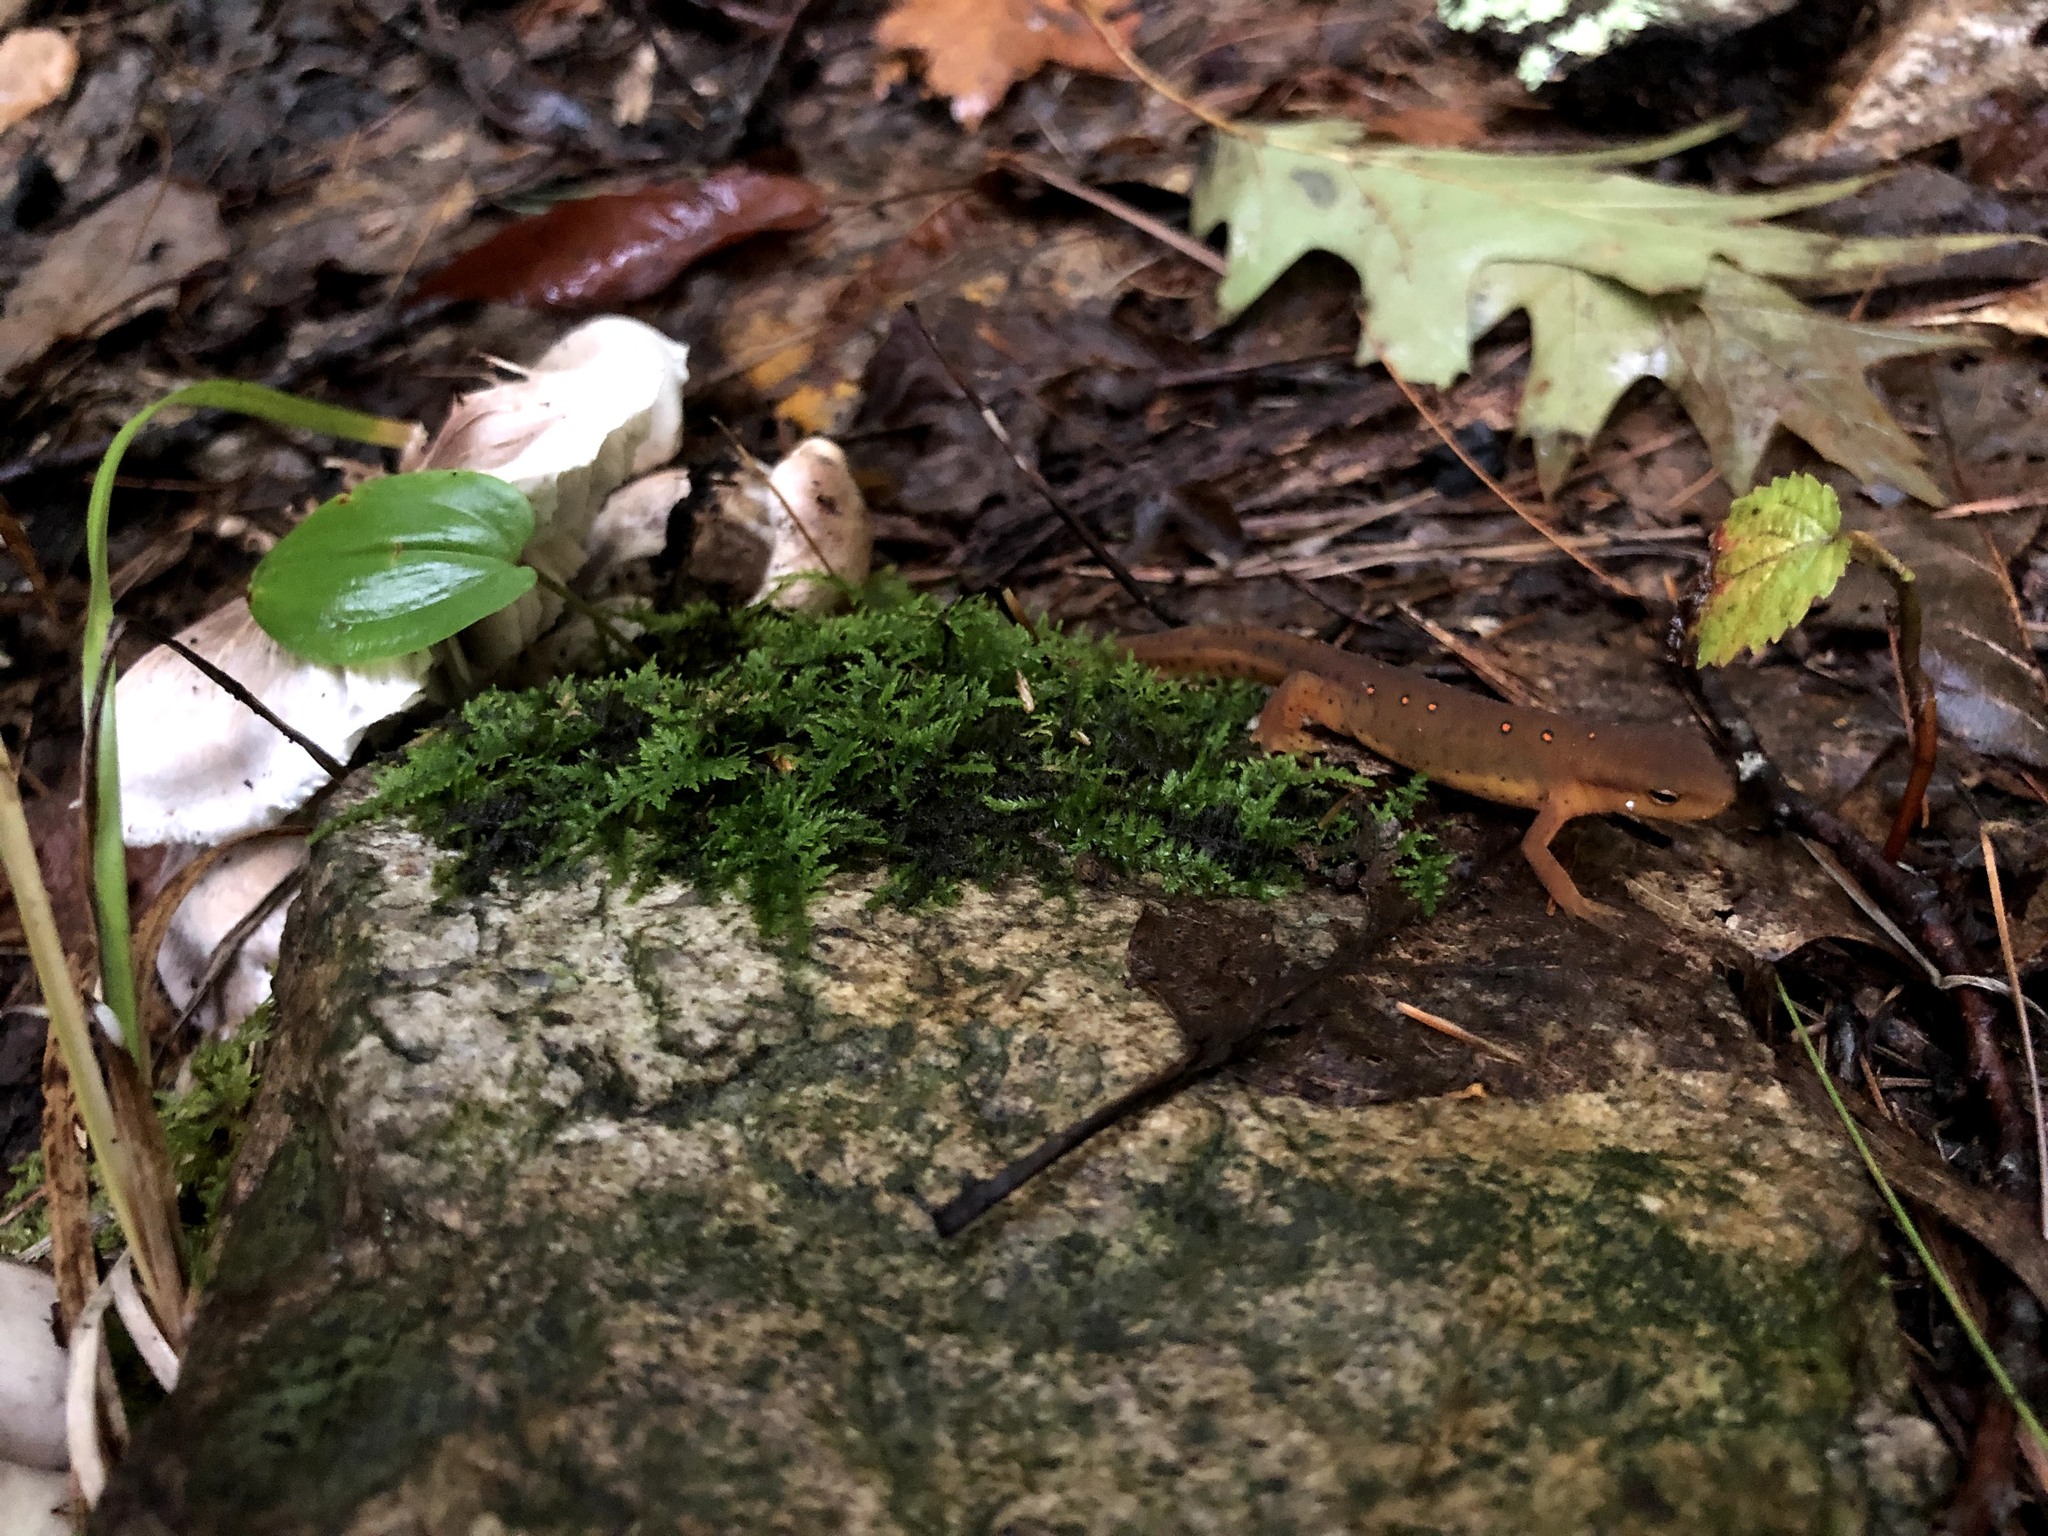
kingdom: Animalia
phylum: Chordata
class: Amphibia
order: Caudata
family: Salamandridae
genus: Notophthalmus
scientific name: Notophthalmus viridescens
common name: Eastern newt
